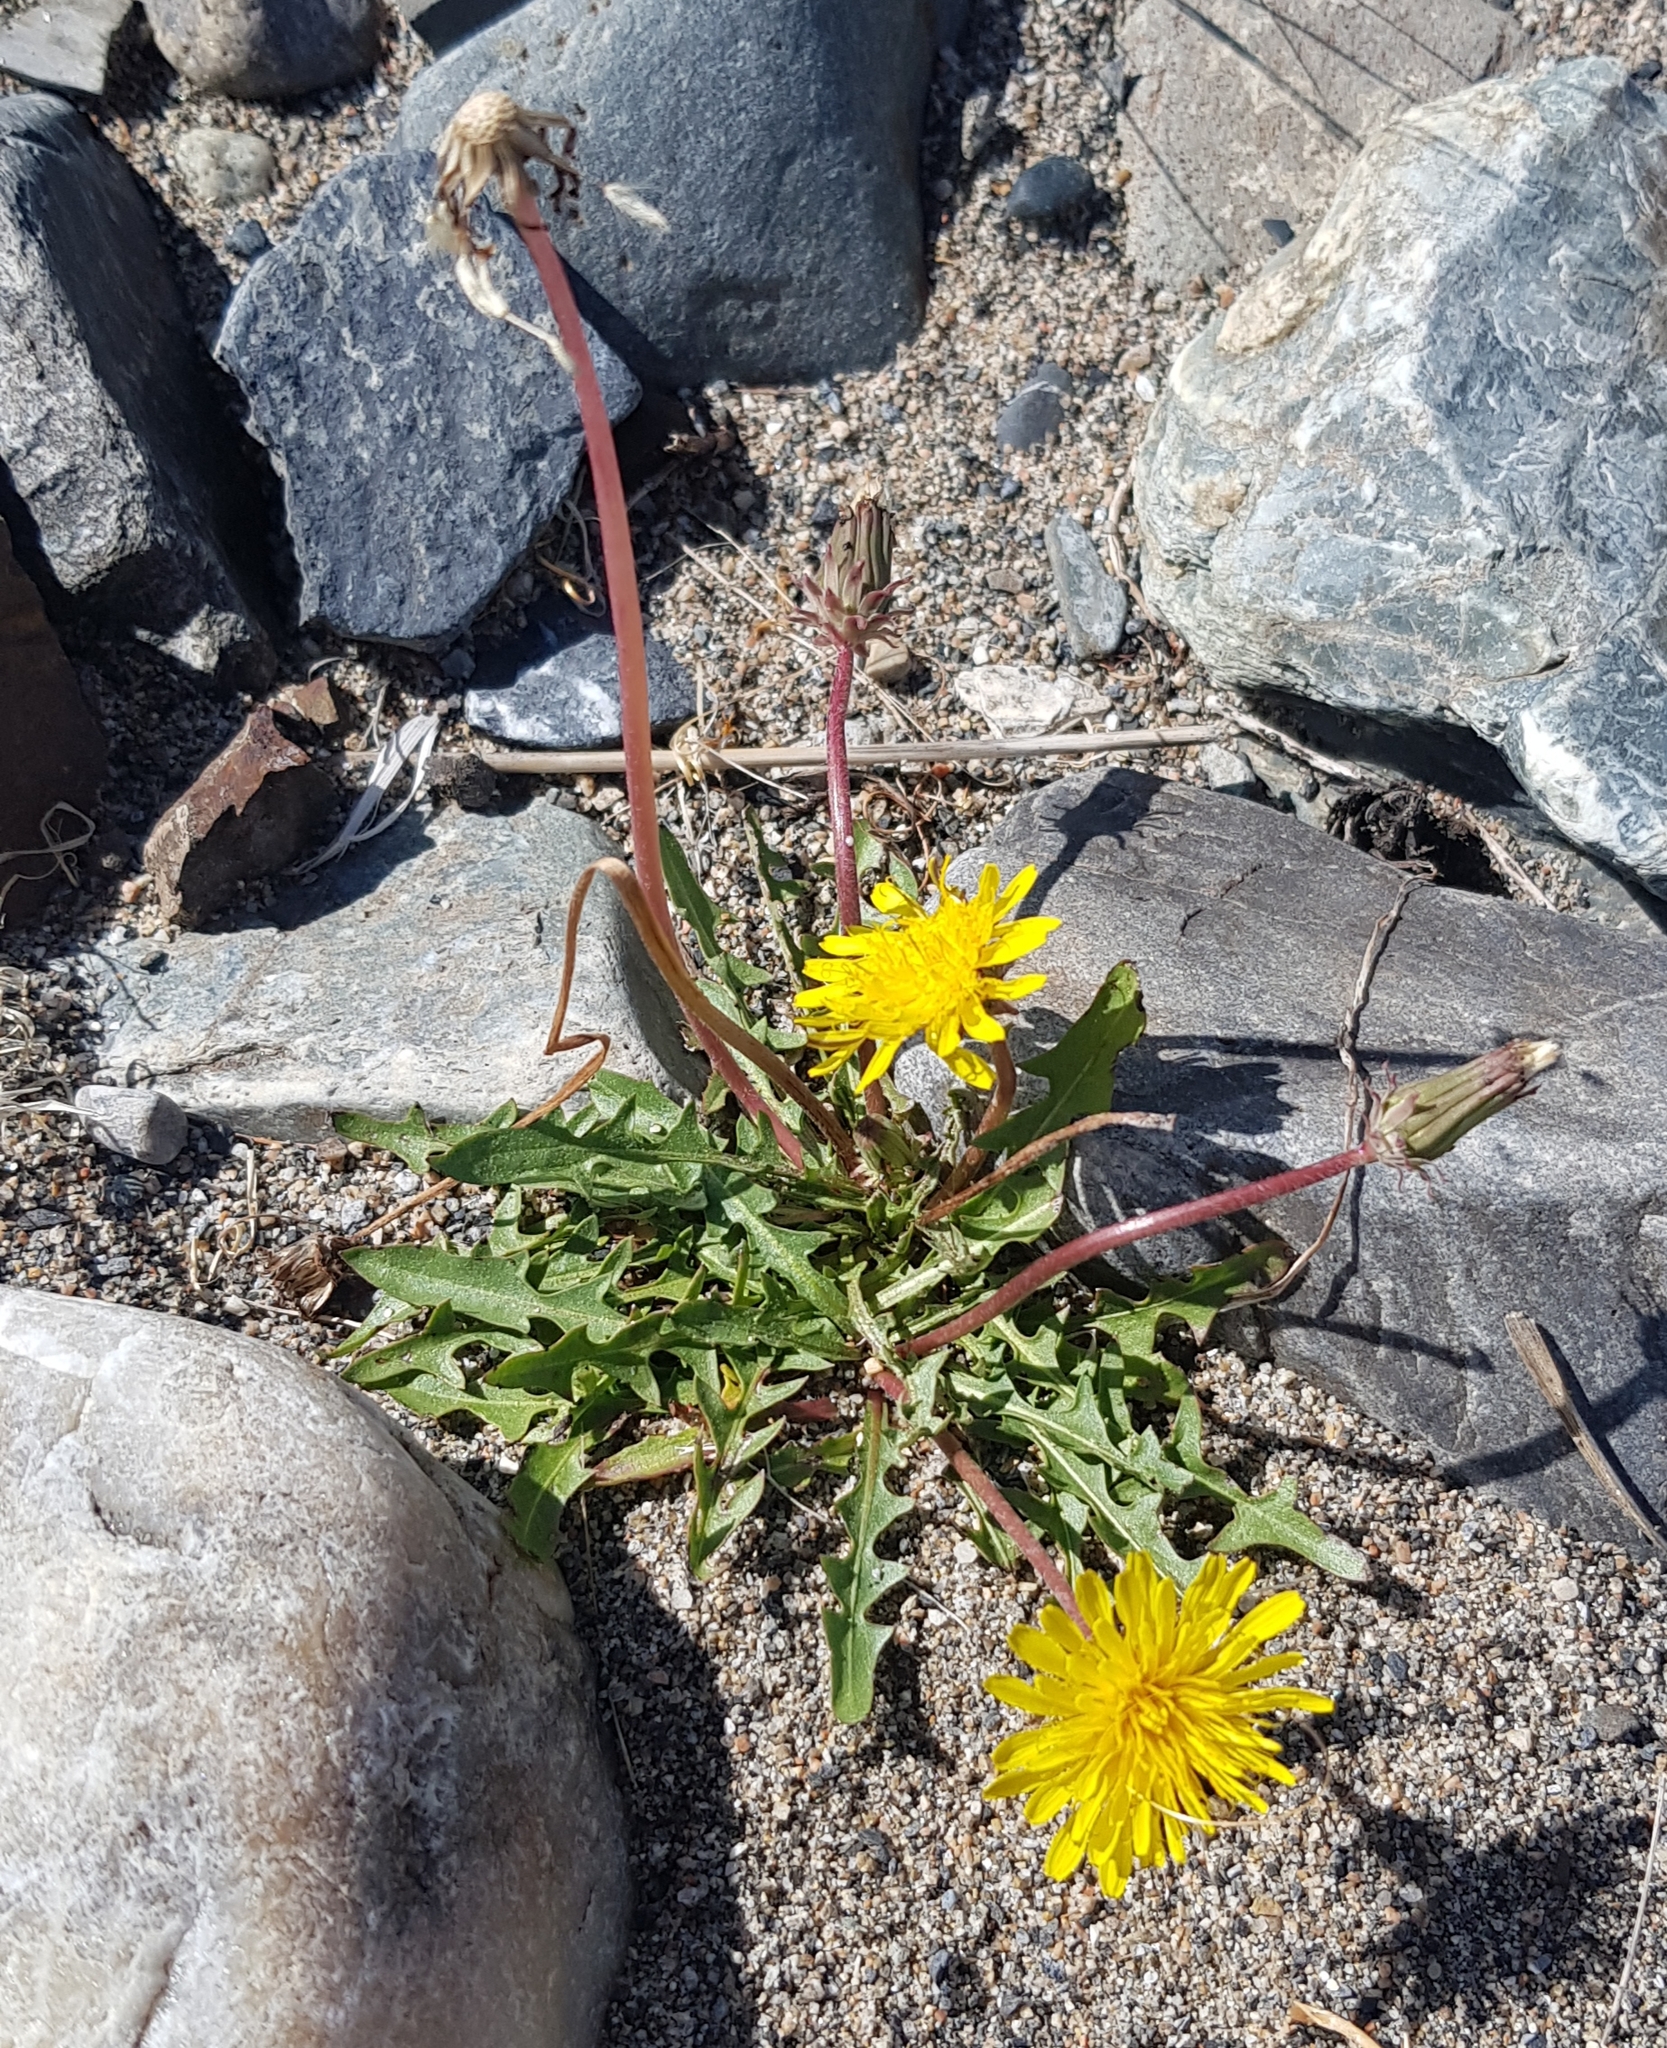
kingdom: Plantae
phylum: Tracheophyta
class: Magnoliopsida
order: Asterales
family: Asteraceae
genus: Taraxacum
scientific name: Taraxacum dissectum
